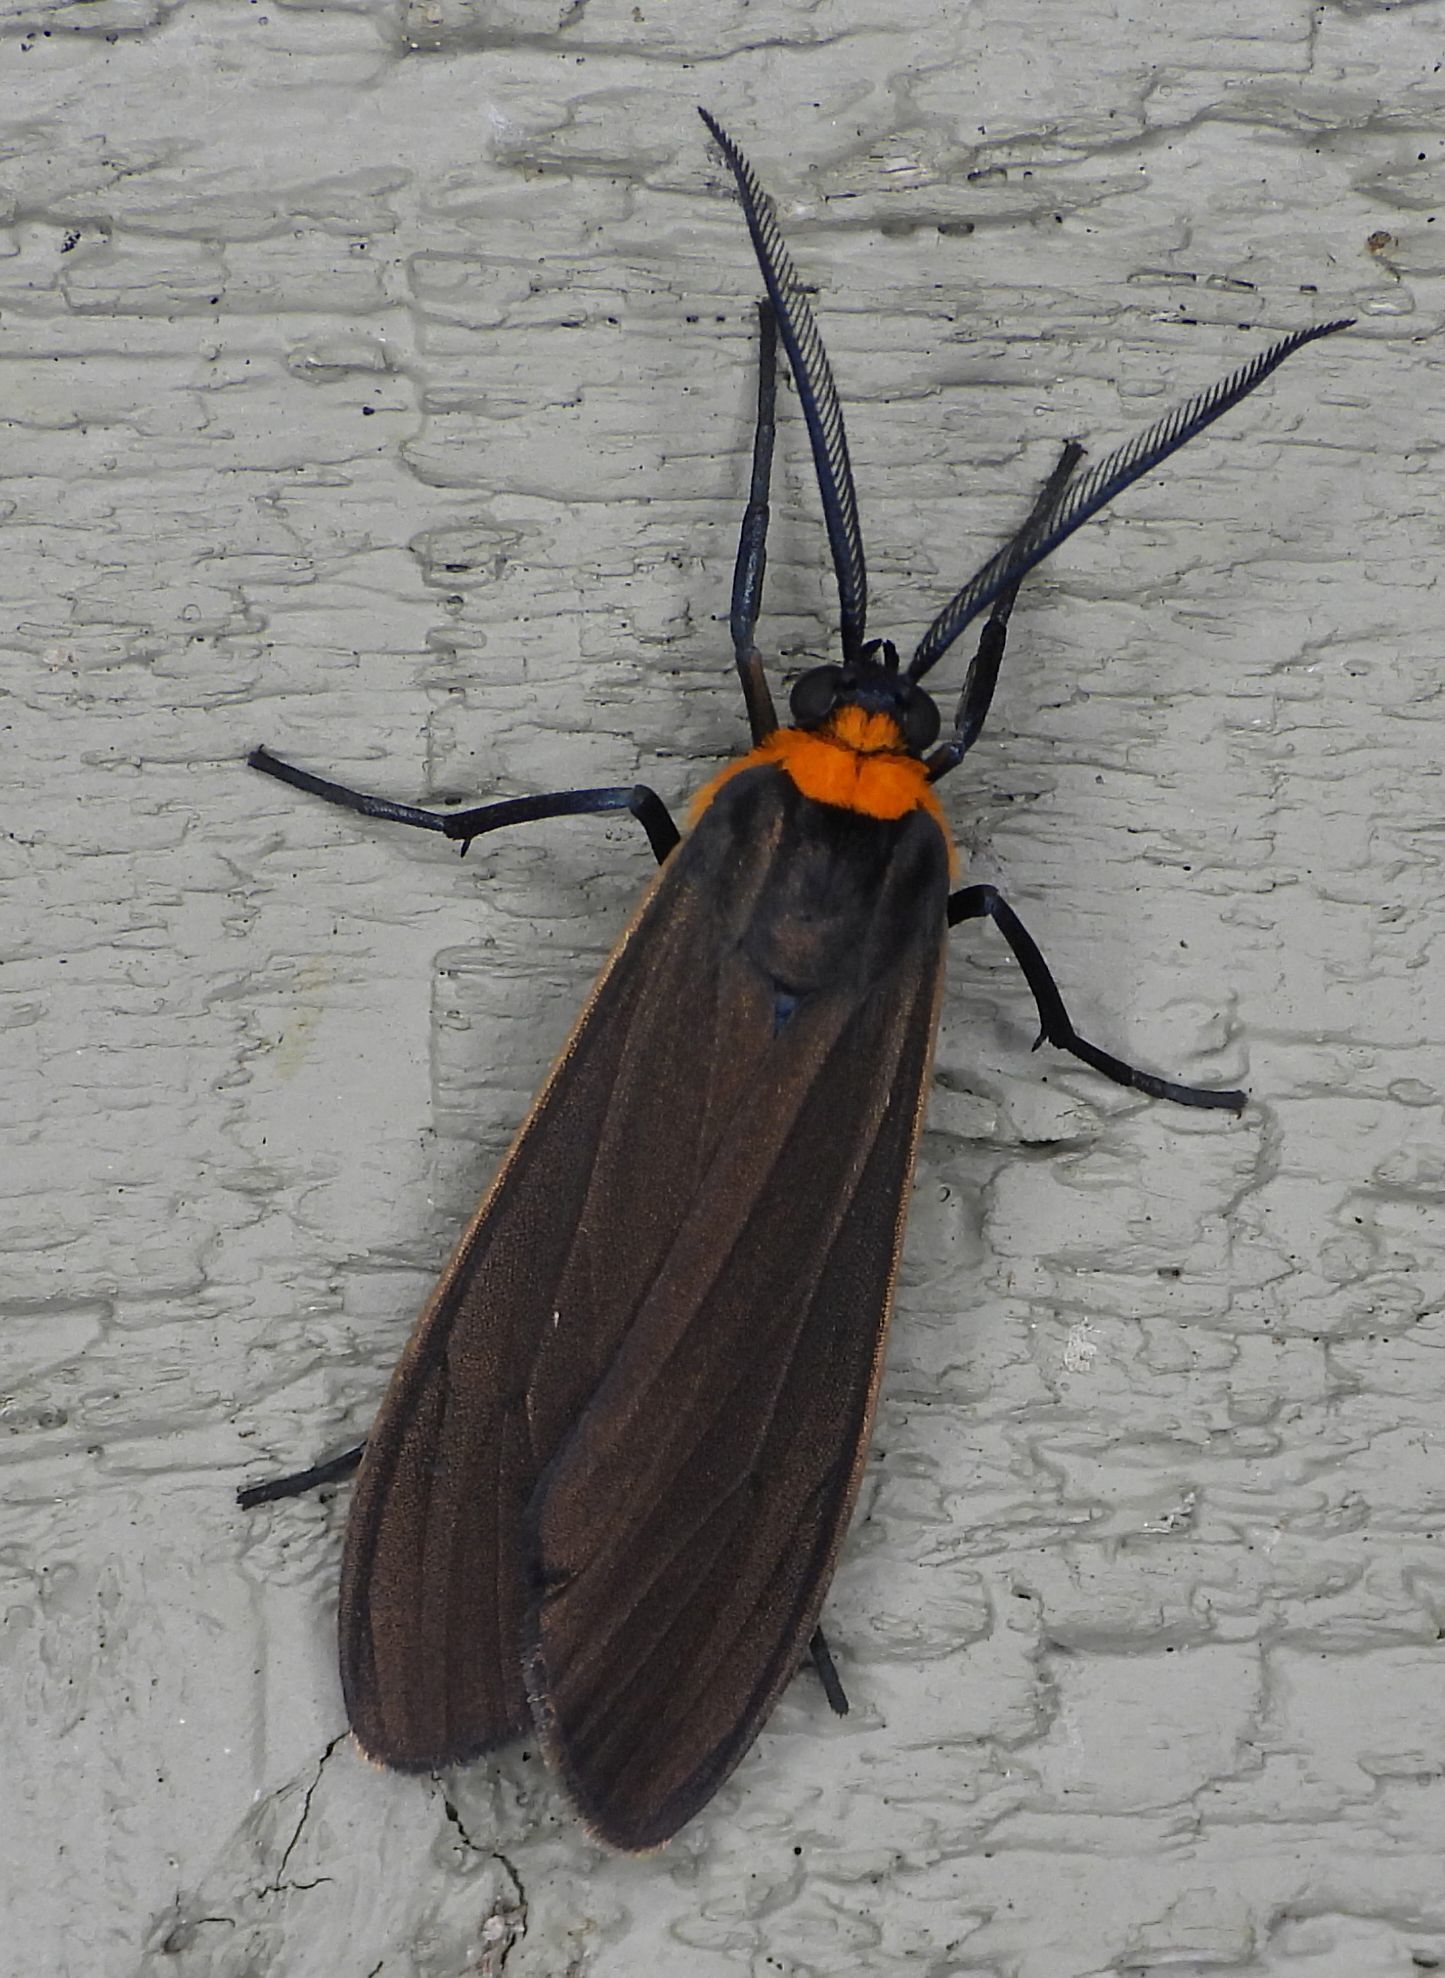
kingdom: Animalia
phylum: Arthropoda
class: Insecta
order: Lepidoptera
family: Erebidae
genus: Cisseps
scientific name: Cisseps fulvicollis
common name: Yellow-collared scape moth
